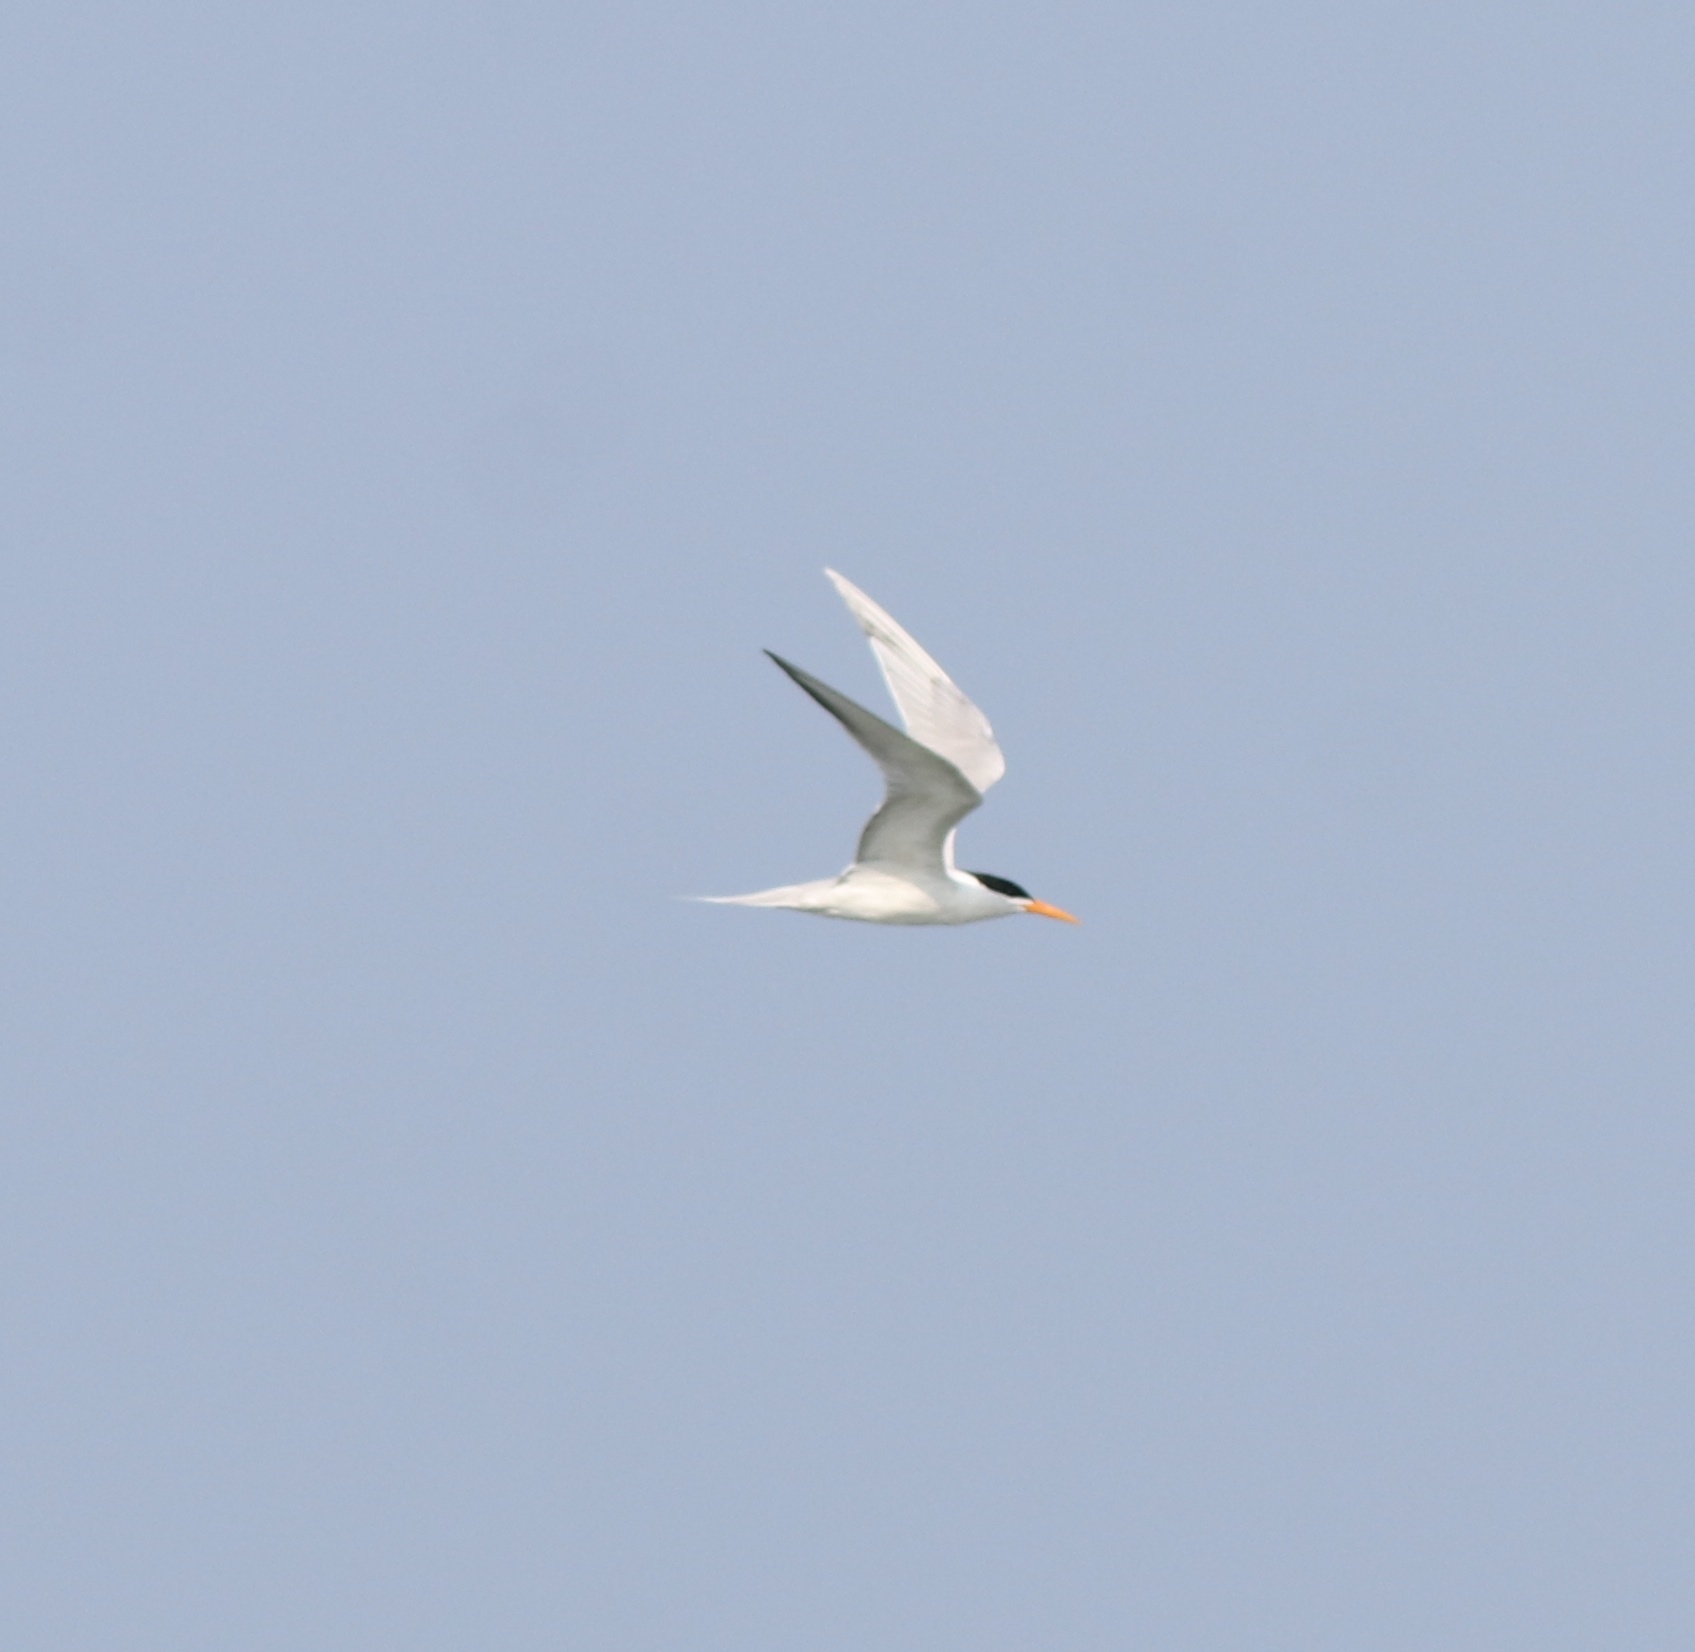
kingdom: Animalia
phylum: Chordata
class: Aves
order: Charadriiformes
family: Laridae
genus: Thalasseus
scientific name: Thalasseus bengalensis
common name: Lesser crested tern
